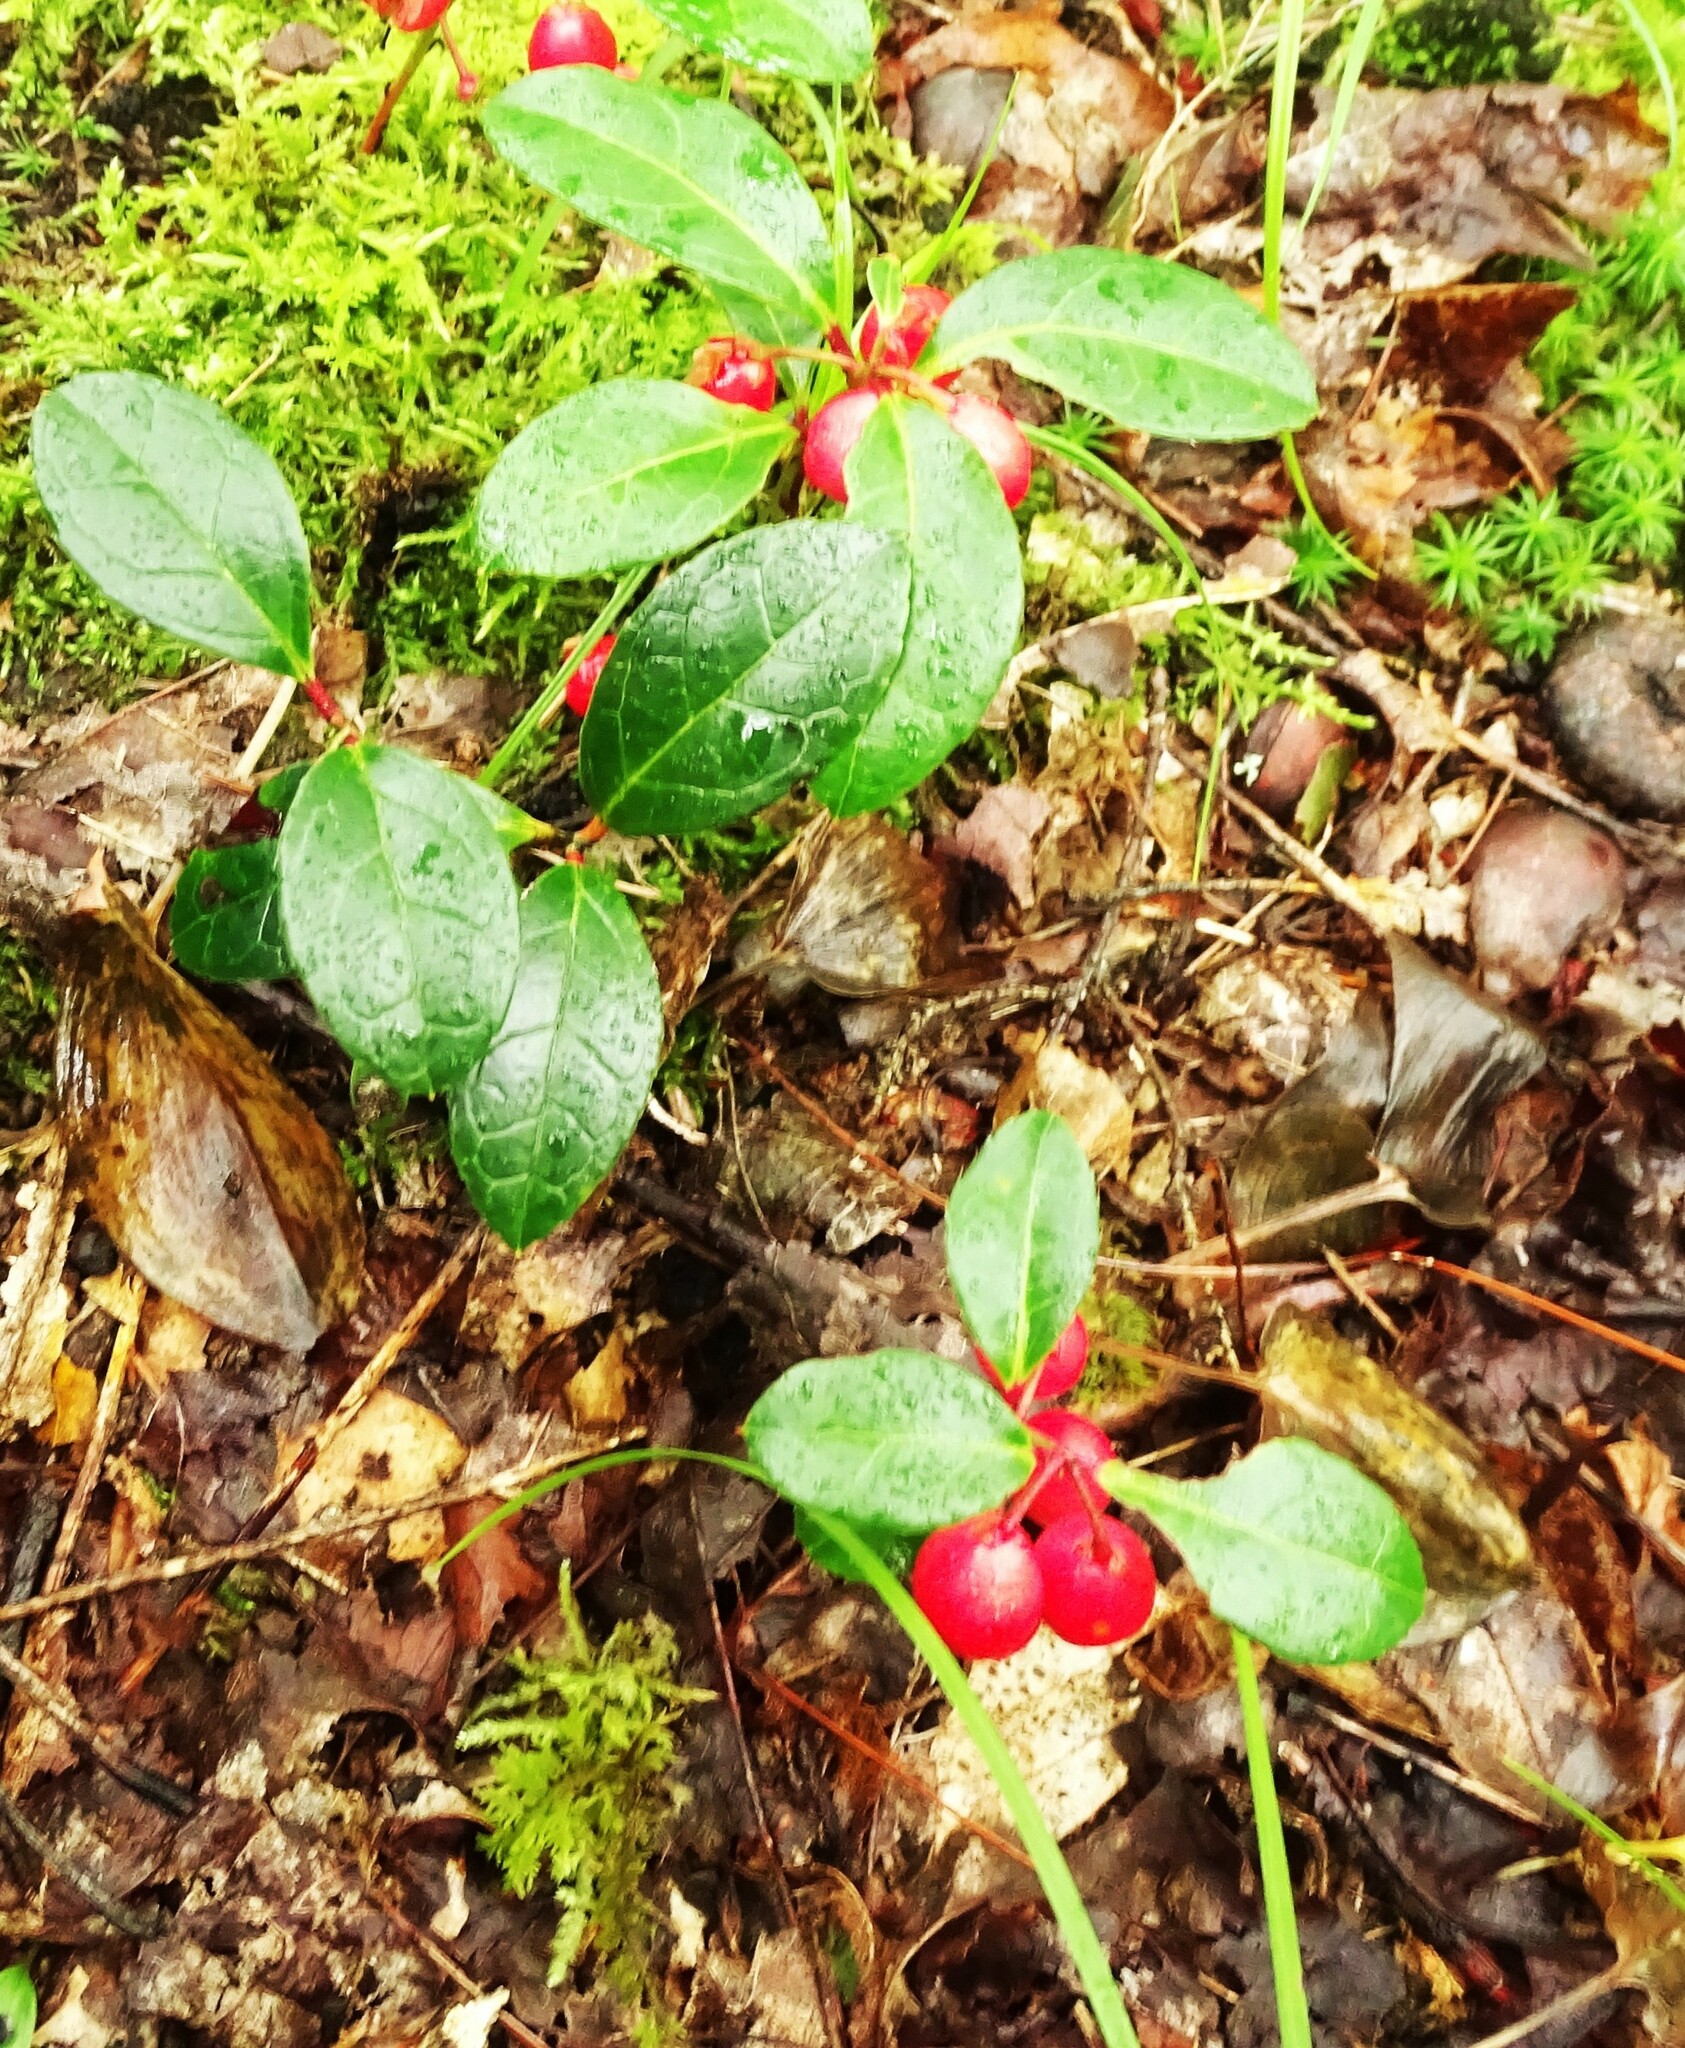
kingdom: Plantae
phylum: Tracheophyta
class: Magnoliopsida
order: Ericales
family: Ericaceae
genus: Gaultheria
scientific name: Gaultheria procumbens
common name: Checkerberry
